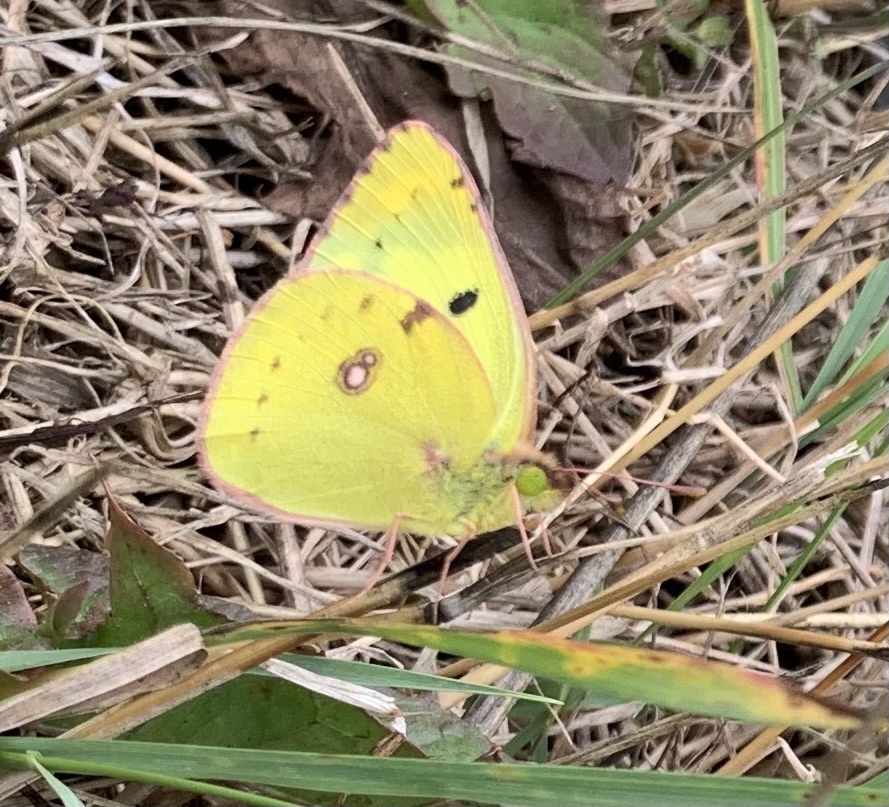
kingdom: Animalia
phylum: Arthropoda
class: Insecta
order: Lepidoptera
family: Pieridae
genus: Colias
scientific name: Colias hyale
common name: Pale clouded yellow
